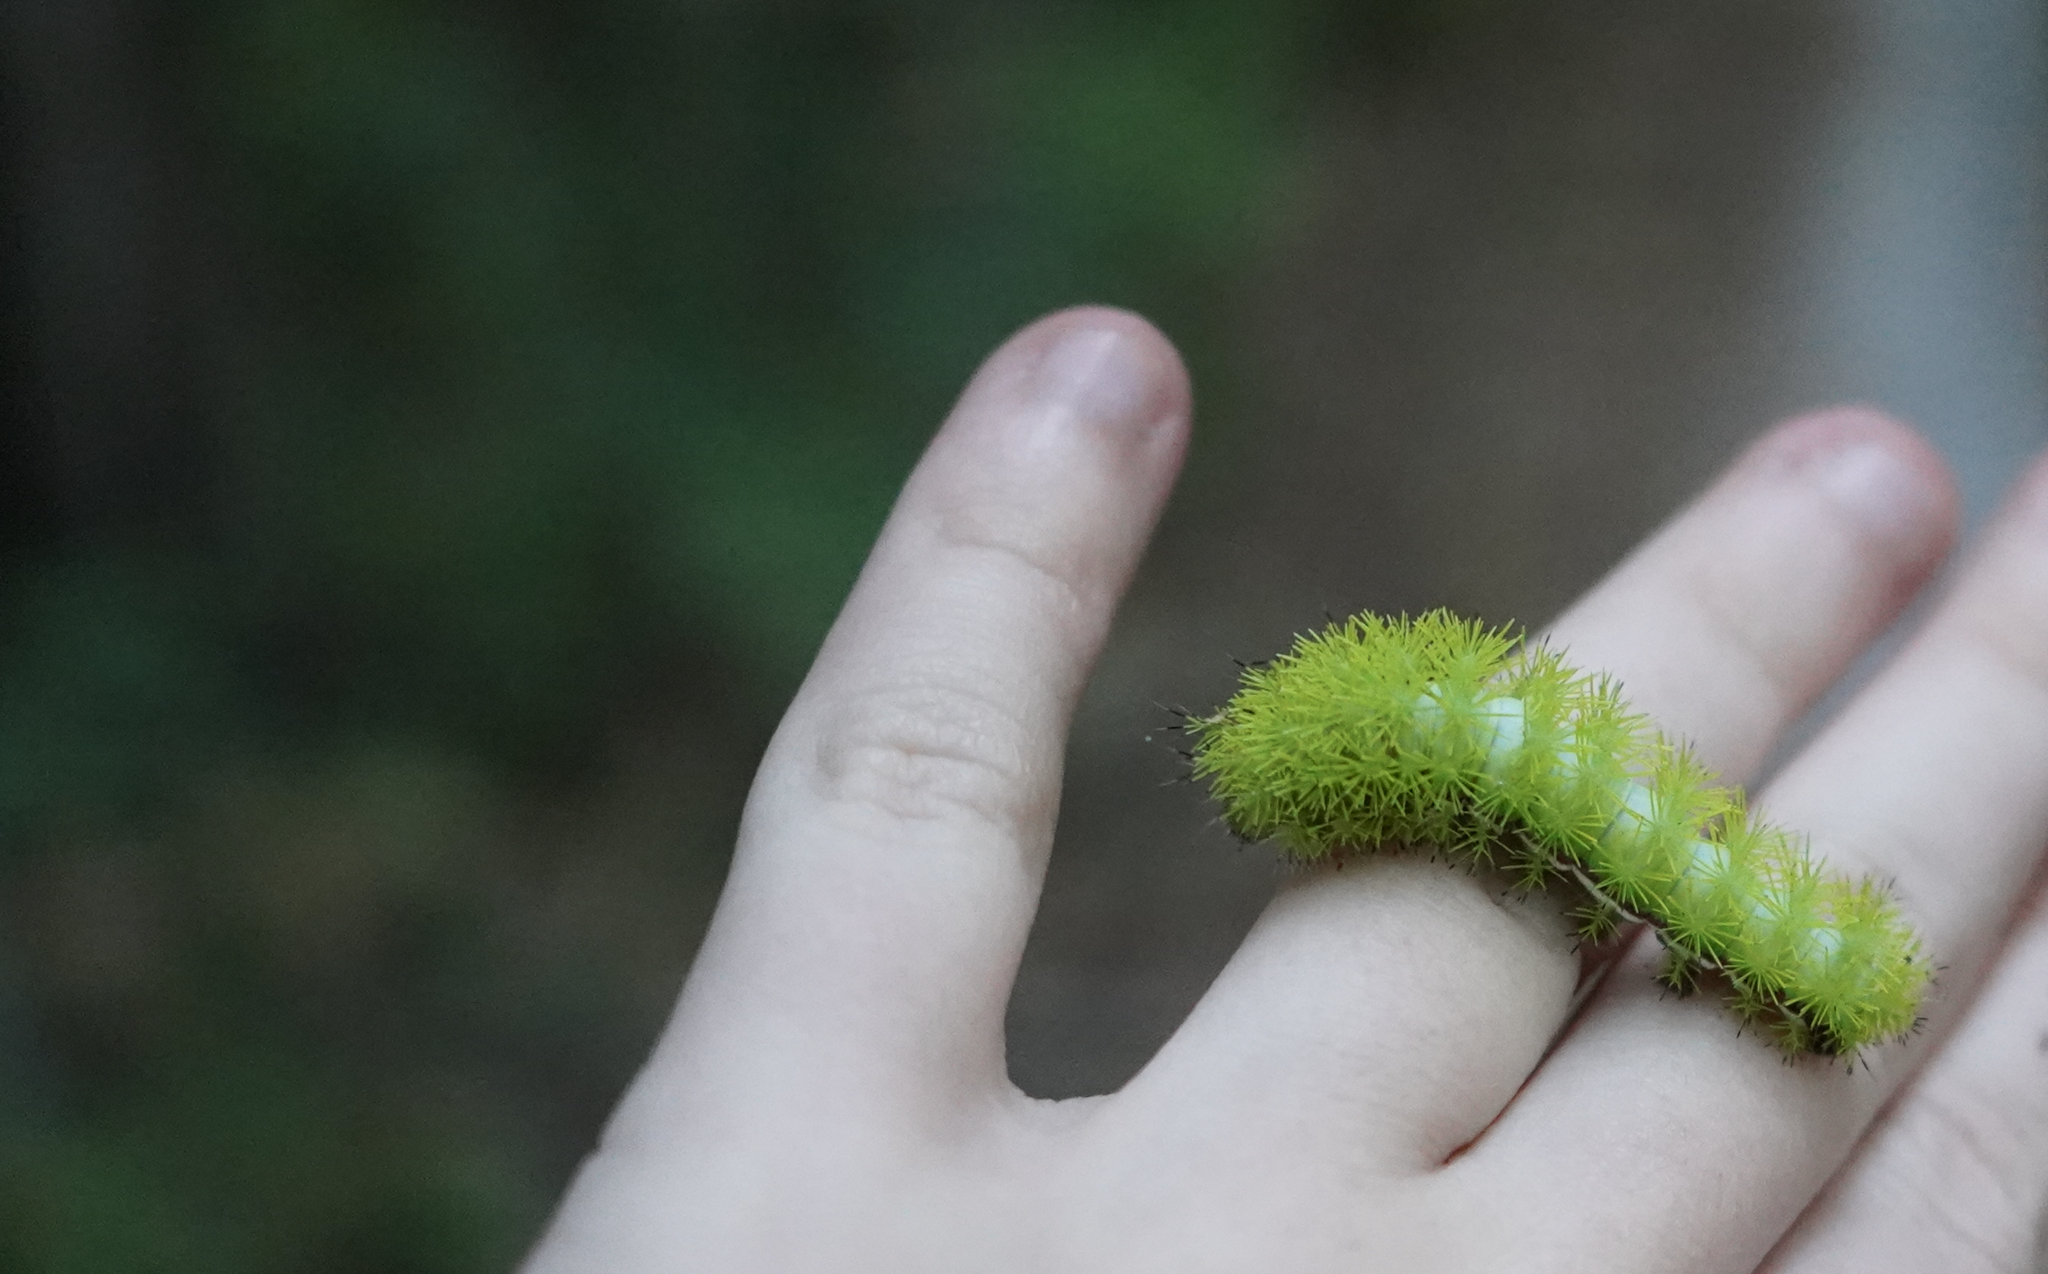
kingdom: Animalia
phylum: Arthropoda
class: Insecta
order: Lepidoptera
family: Saturniidae
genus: Automeris
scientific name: Automeris io
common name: Io moth
